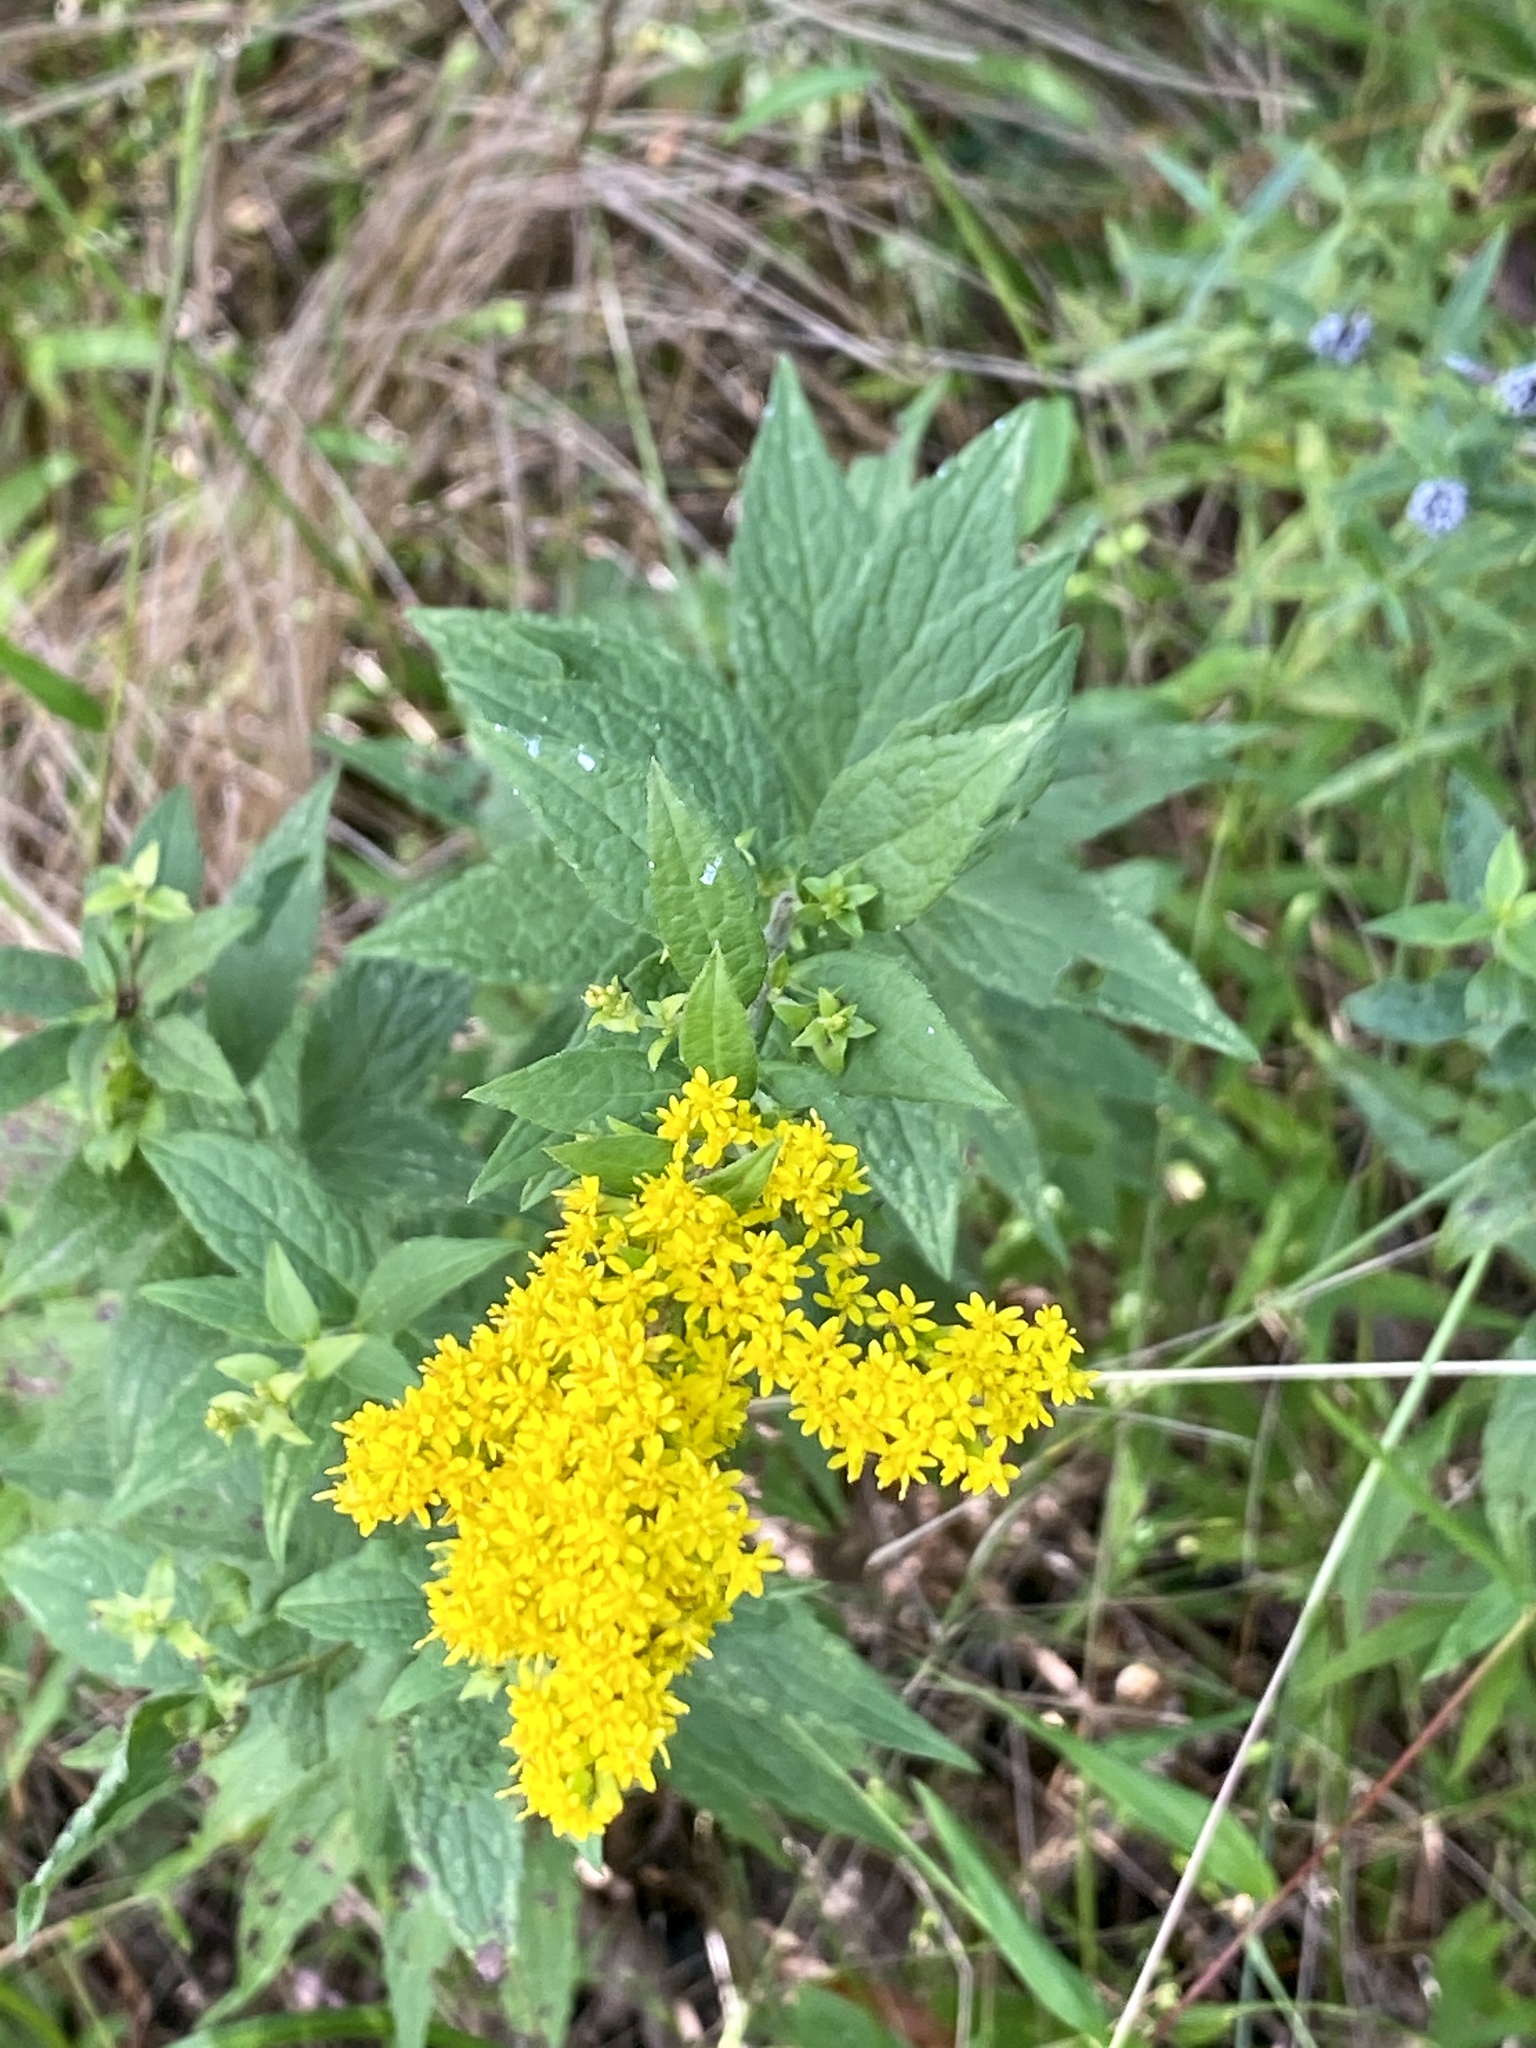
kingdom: Plantae
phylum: Tracheophyta
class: Magnoliopsida
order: Asterales
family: Asteraceae
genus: Solidago
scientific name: Solidago rugosa
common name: Rough-stemmed goldenrod
